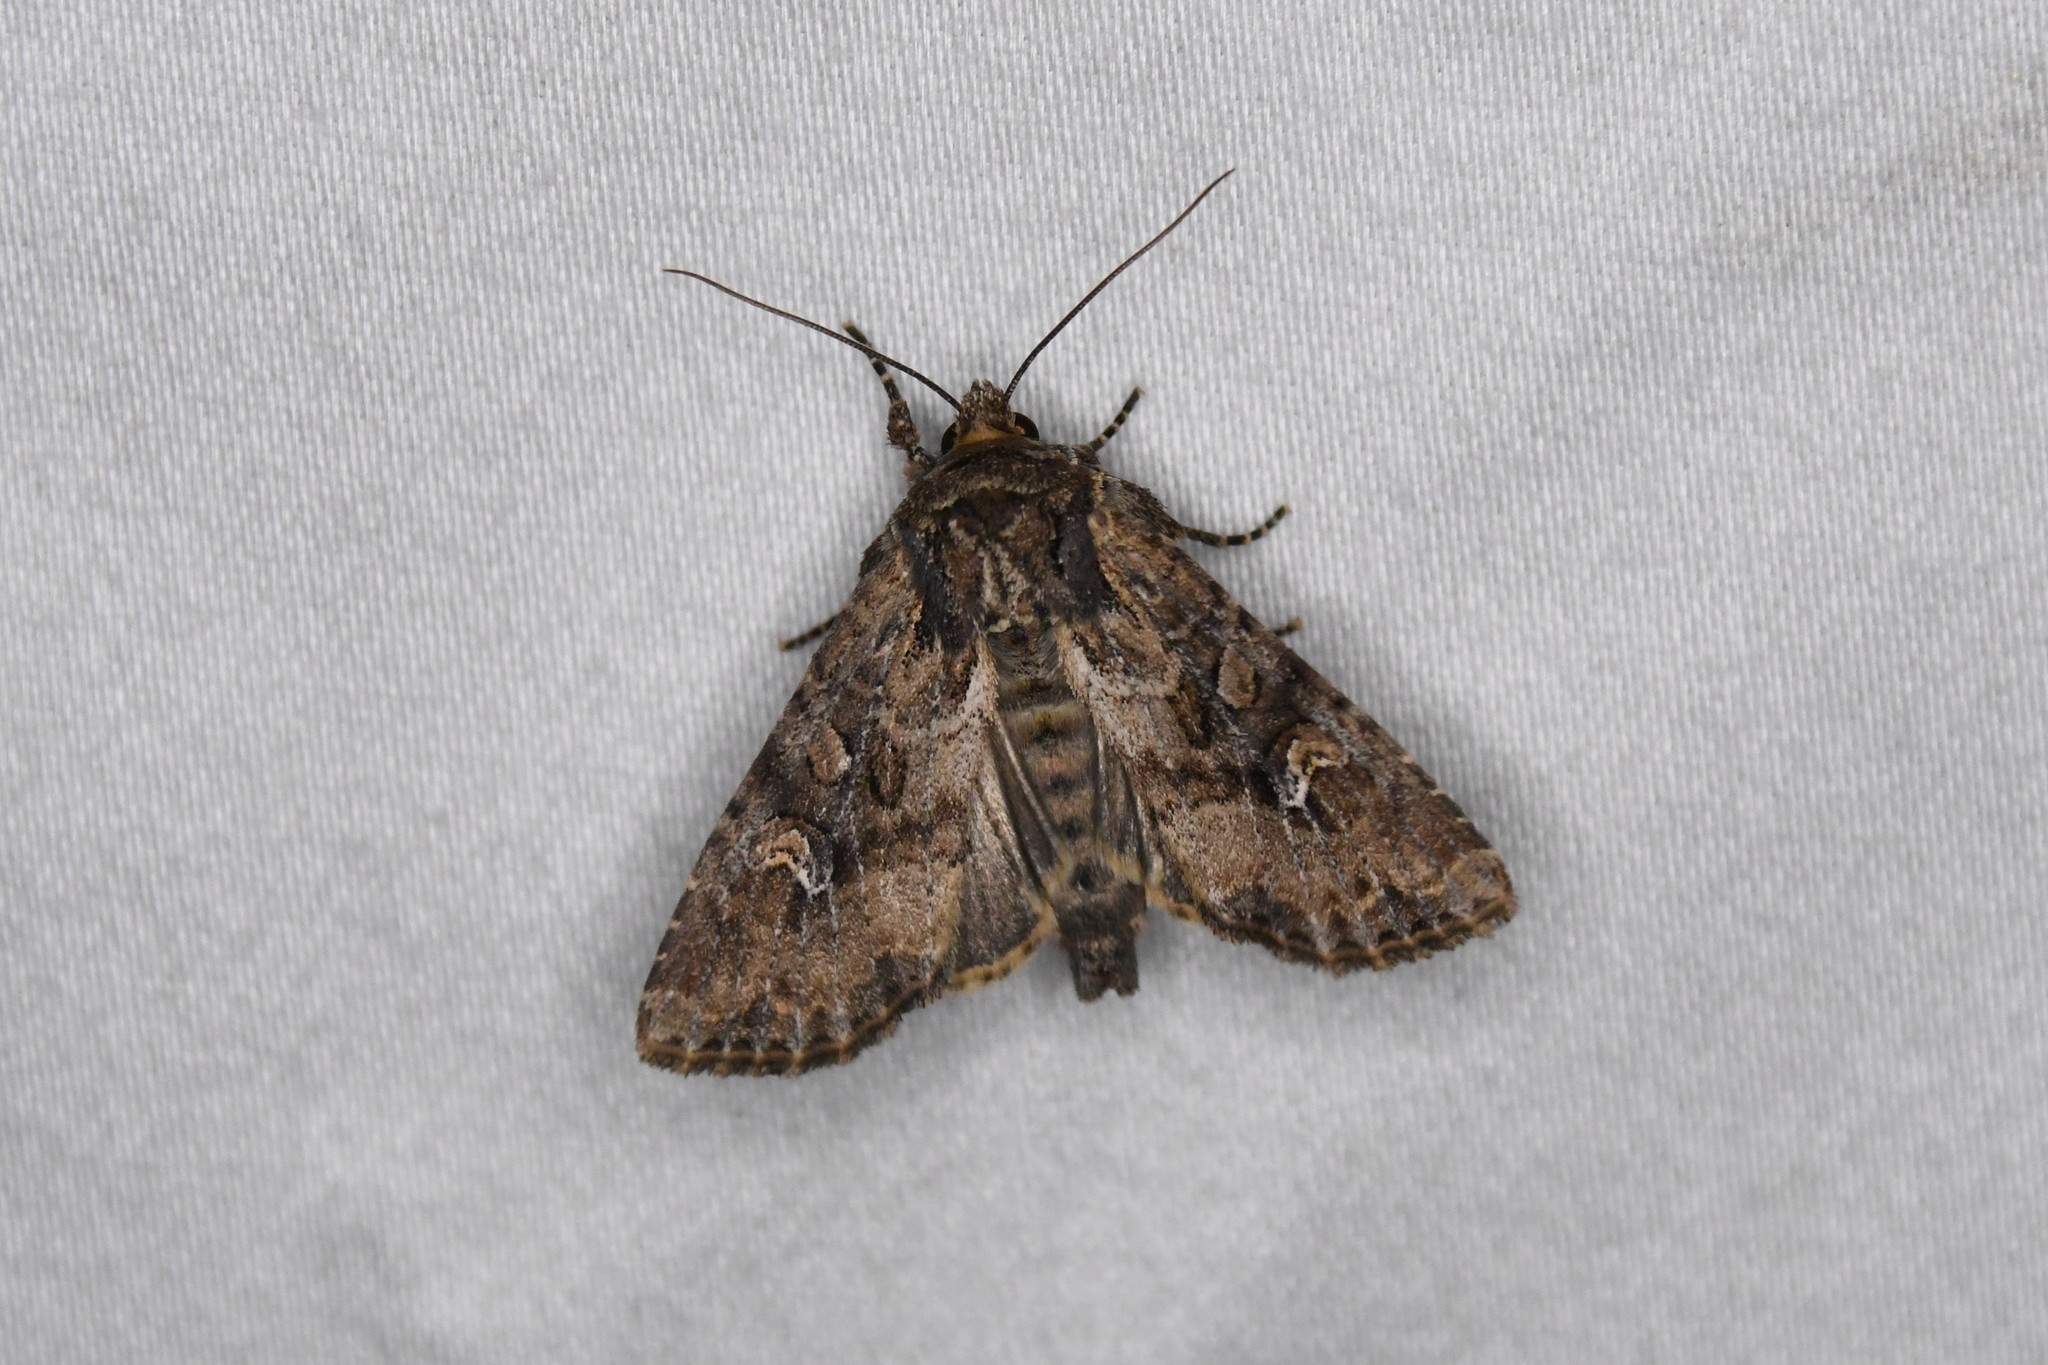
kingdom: Animalia
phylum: Arthropoda
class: Insecta
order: Lepidoptera
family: Noctuidae
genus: Apamea
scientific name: Apamea unanimis
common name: Small clouded brindle
